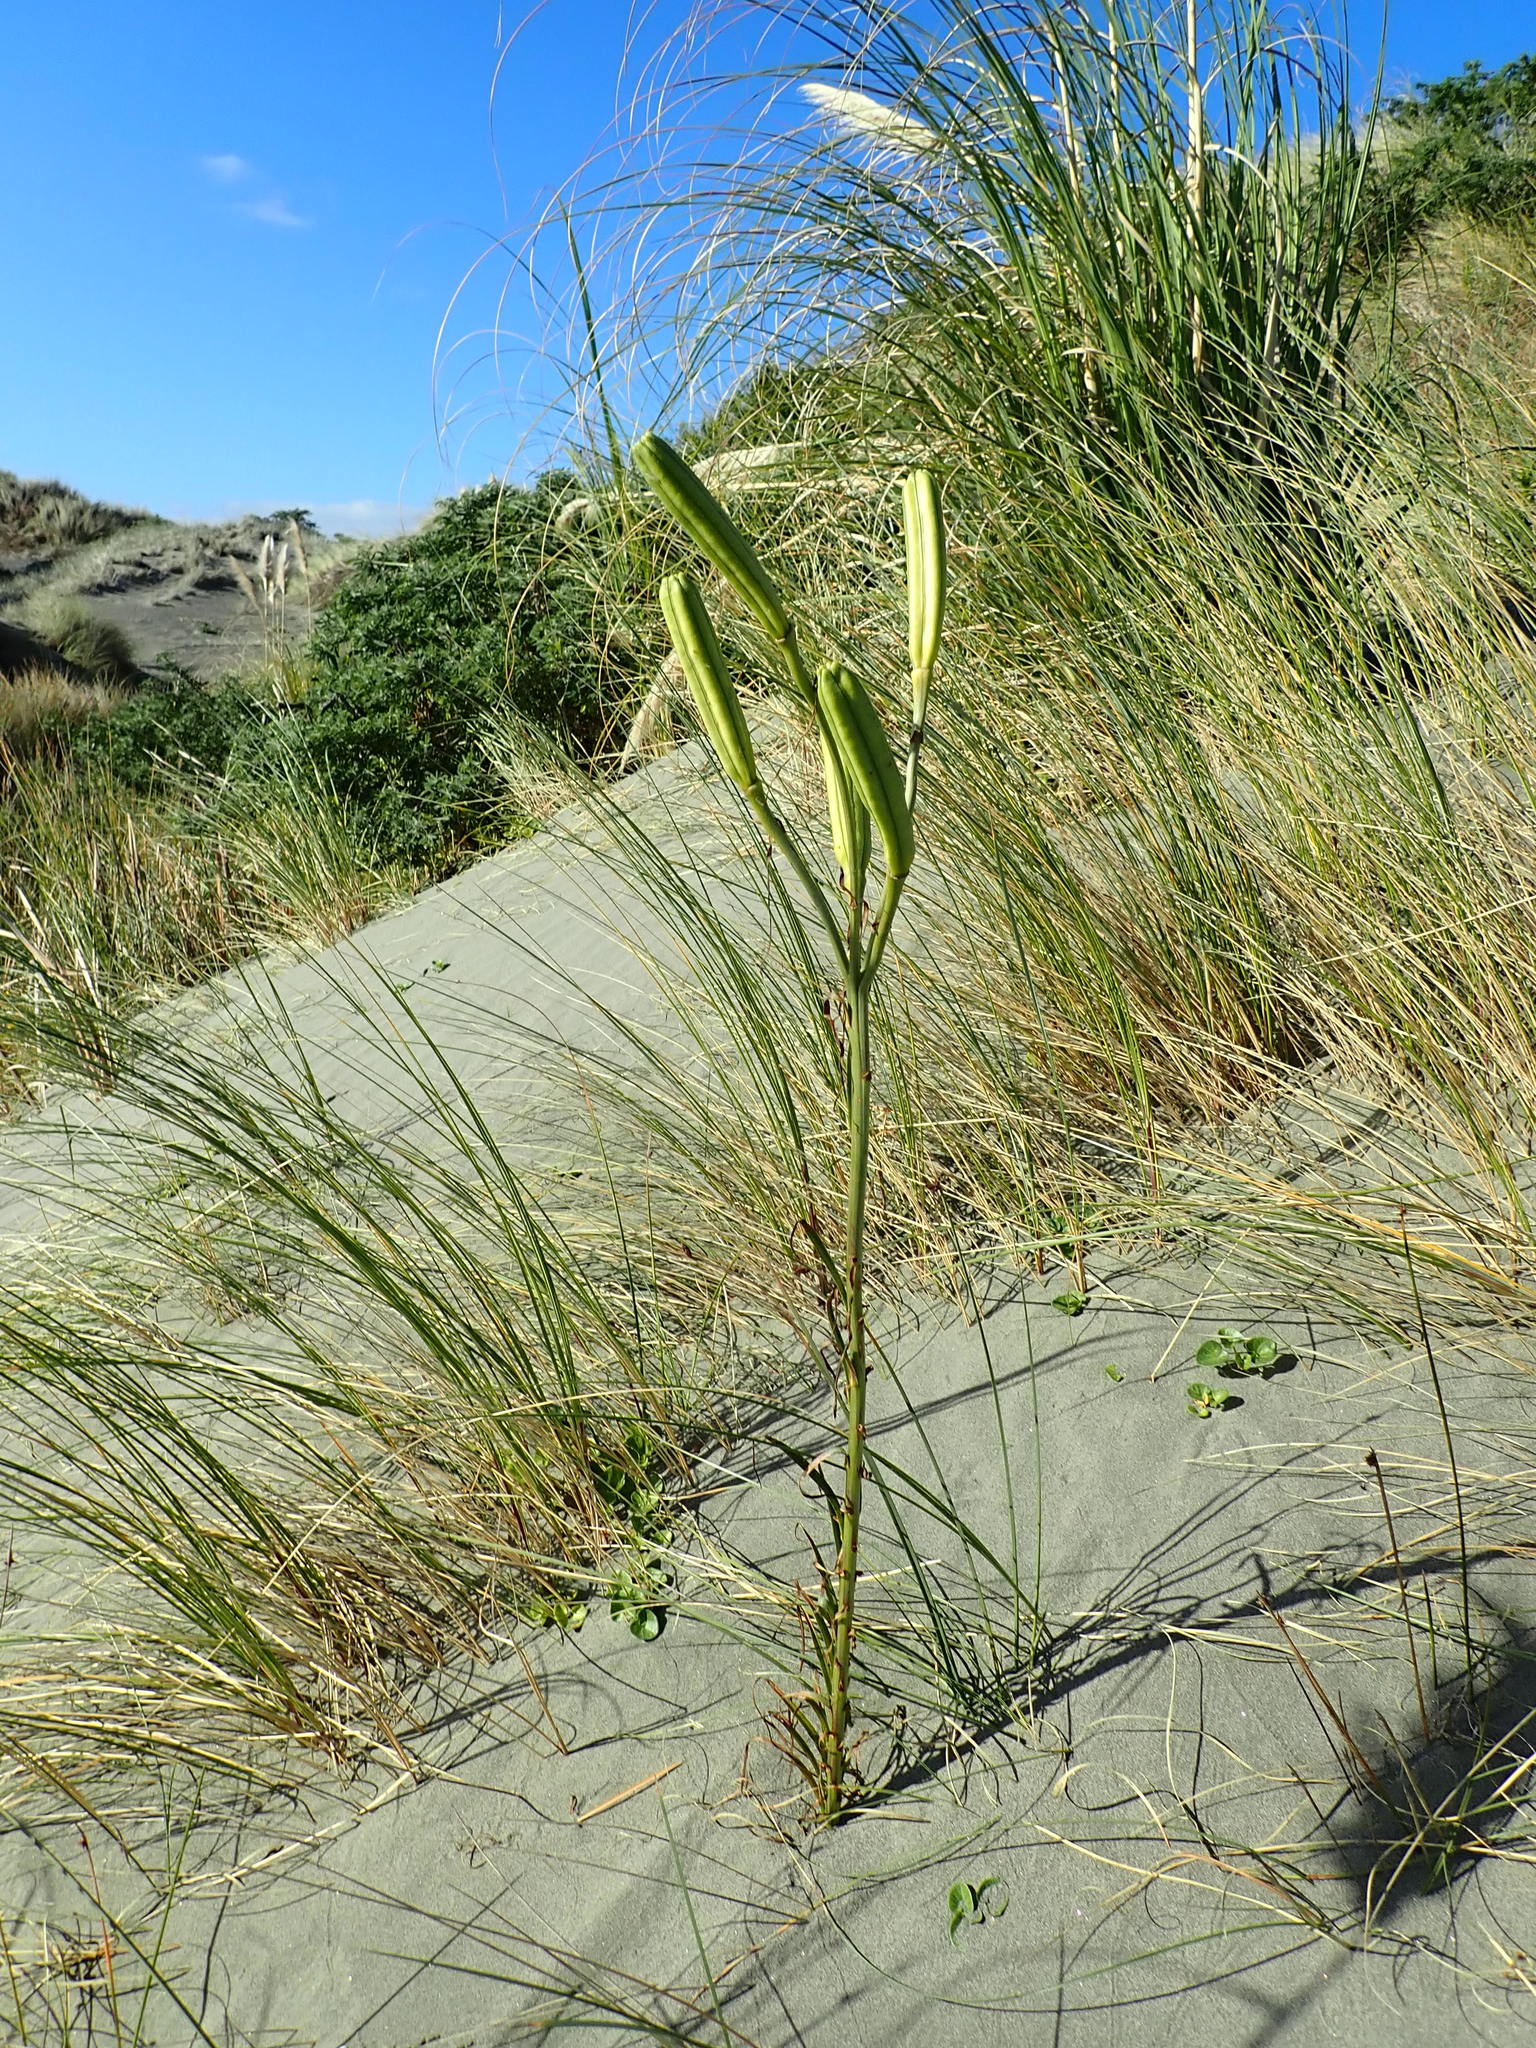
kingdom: Plantae
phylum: Tracheophyta
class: Liliopsida
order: Liliales
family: Liliaceae
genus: Lilium
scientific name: Lilium formosanum
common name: Formosa lily
